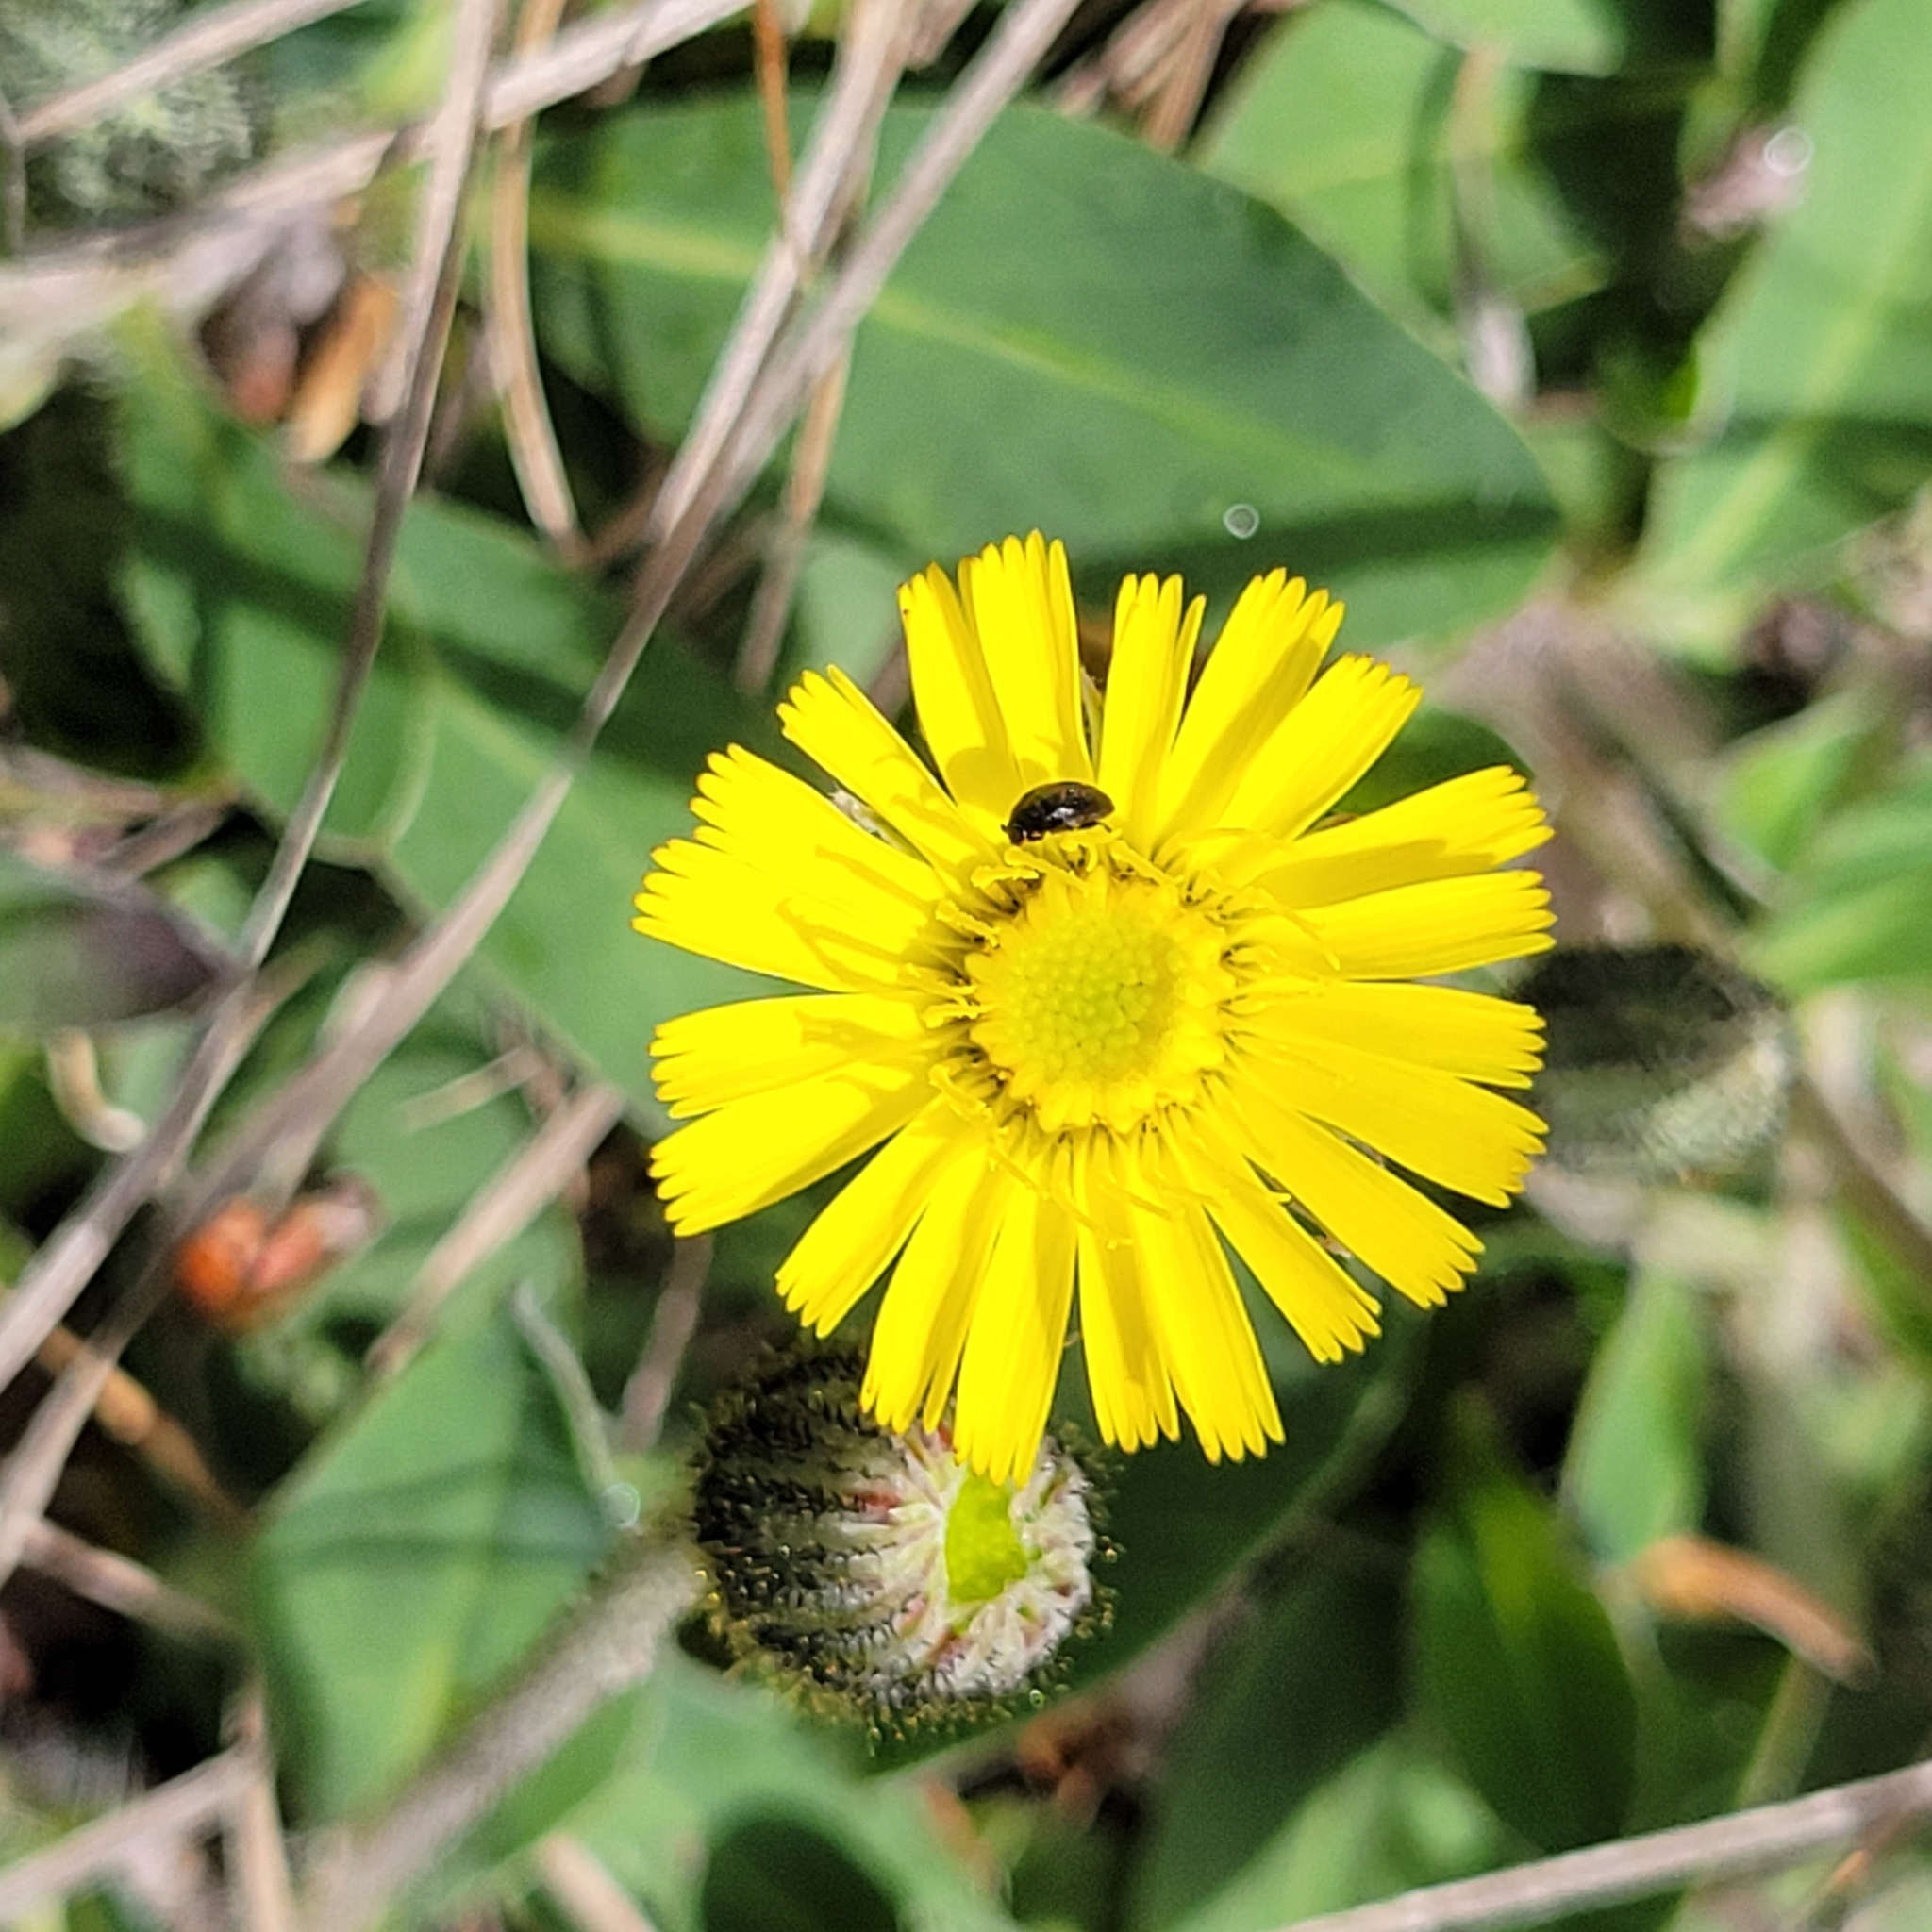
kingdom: Plantae
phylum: Tracheophyta
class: Magnoliopsida
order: Asterales
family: Asteraceae
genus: Pilosella
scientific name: Pilosella officinarum
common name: Mouse-ear hawkweed
